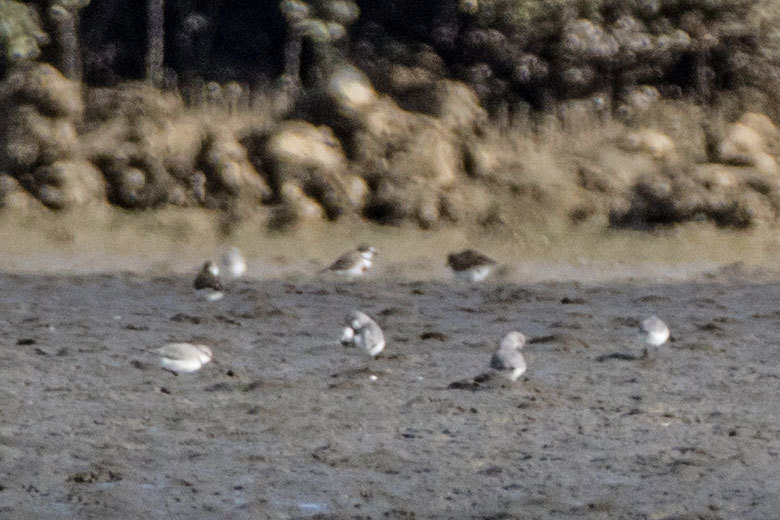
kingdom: Animalia
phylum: Chordata
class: Aves
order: Charadriiformes
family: Charadriidae
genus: Anarhynchus
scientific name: Anarhynchus frontalis
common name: Wrybill
